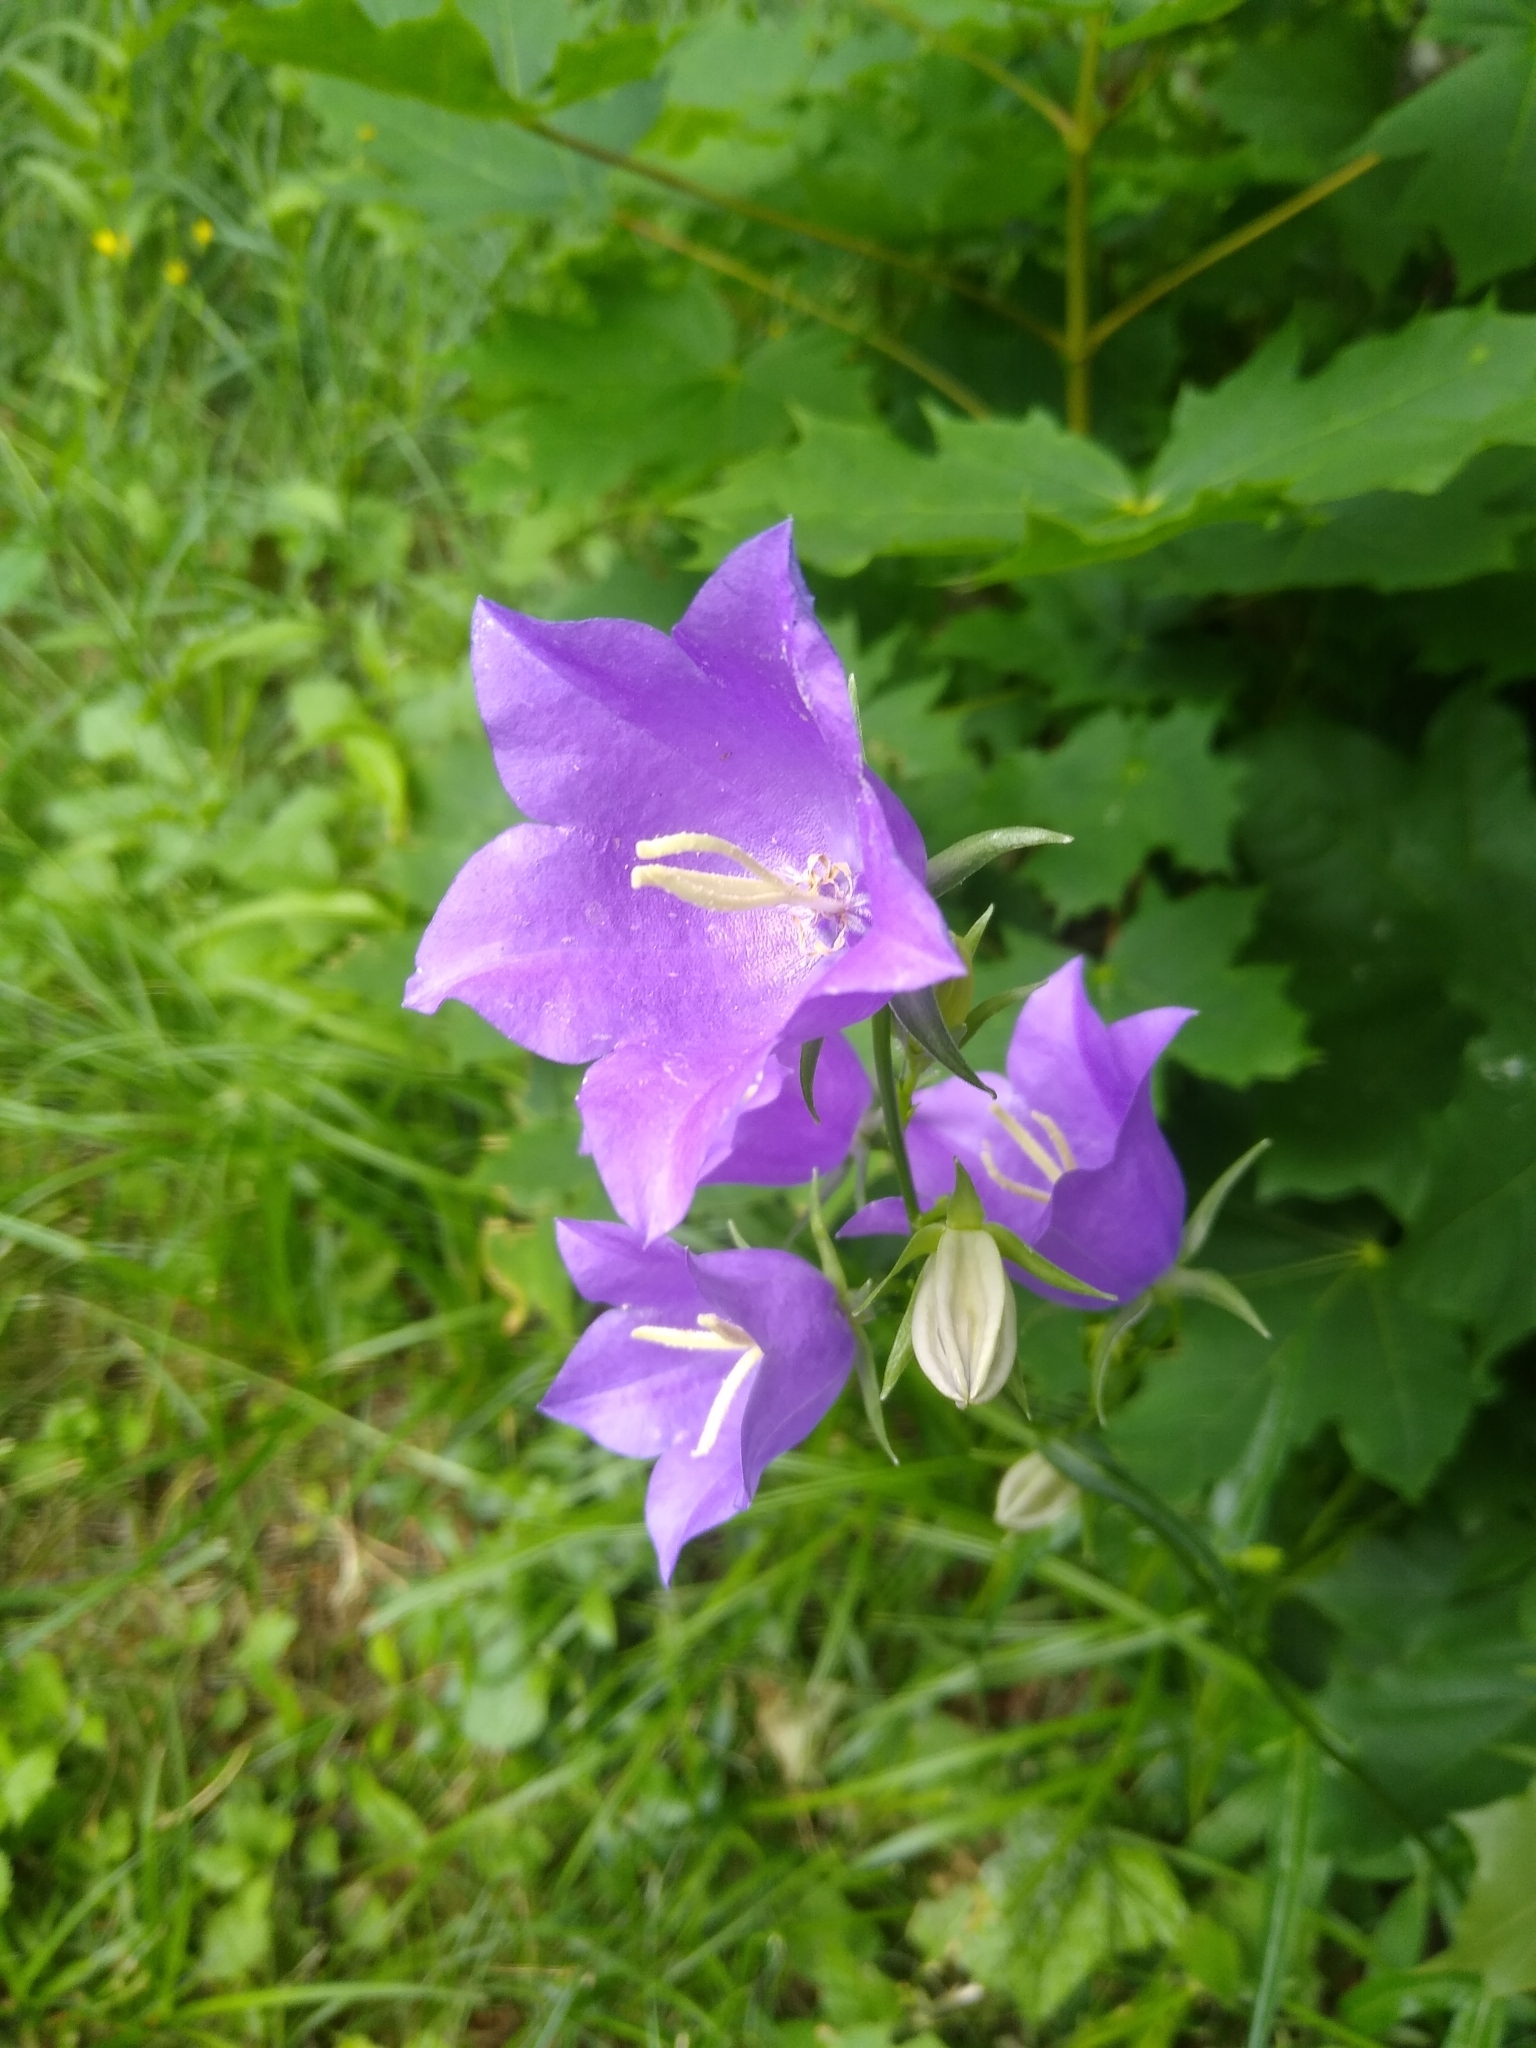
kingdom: Plantae
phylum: Tracheophyta
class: Magnoliopsida
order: Asterales
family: Campanulaceae
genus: Campanula
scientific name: Campanula persicifolia
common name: Peach-leaved bellflower
